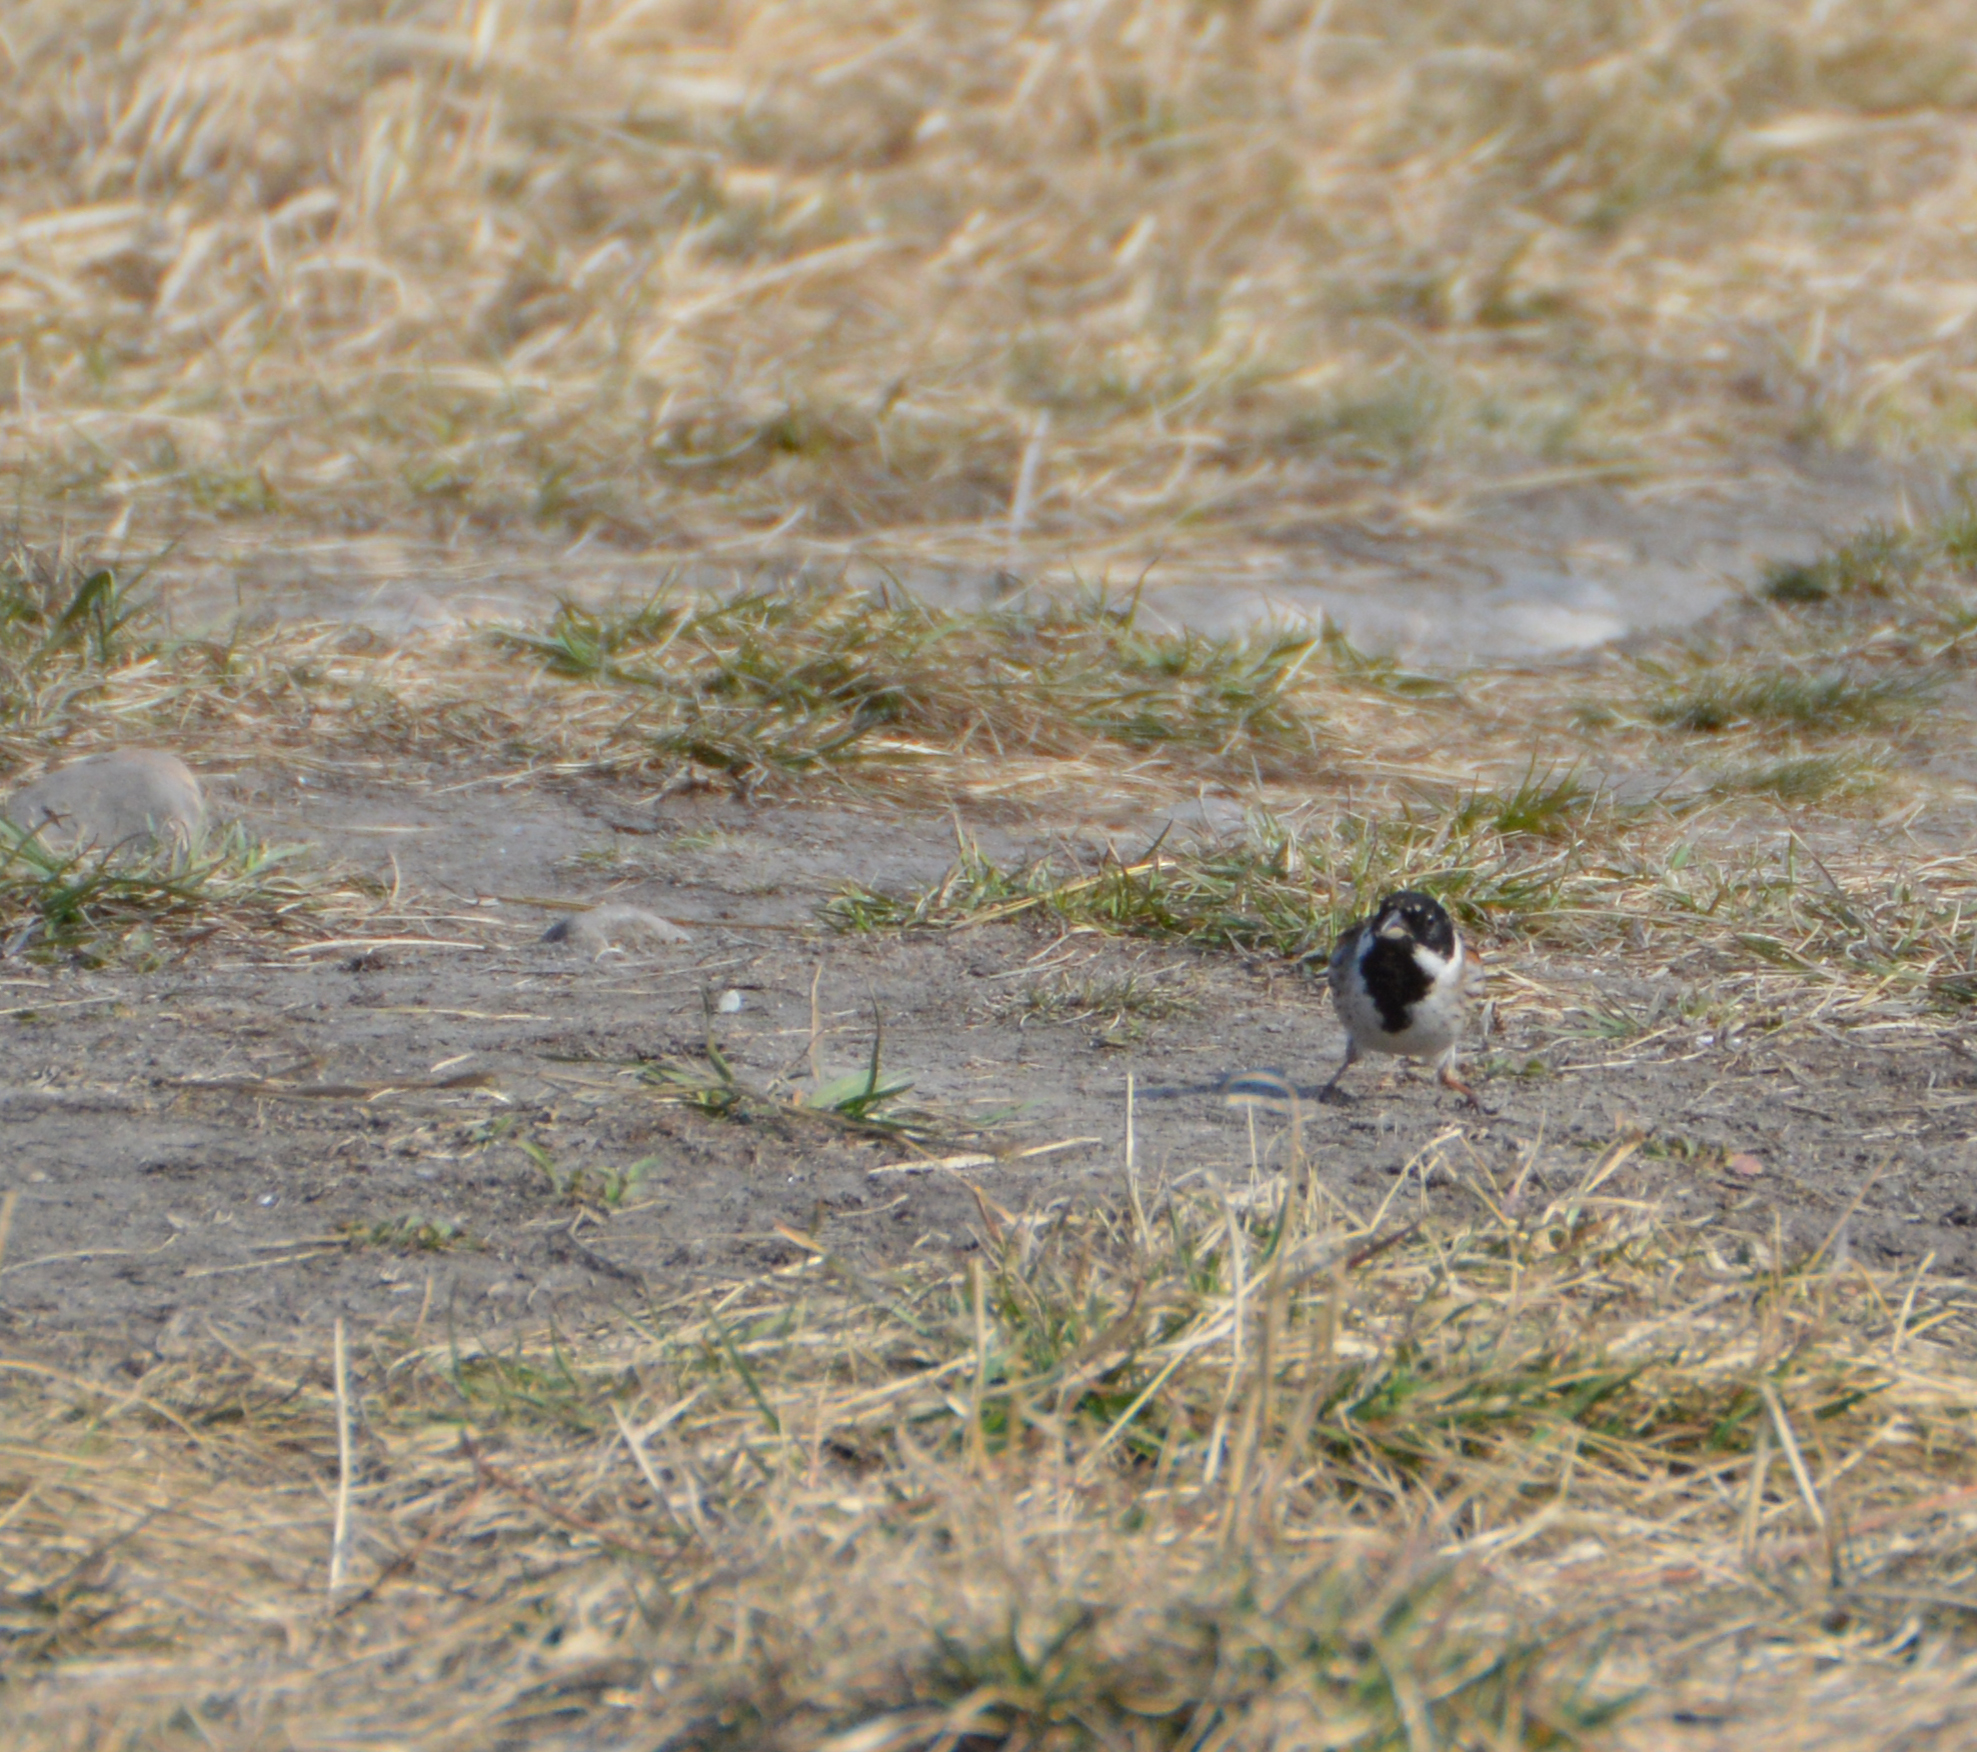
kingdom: Animalia
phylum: Chordata
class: Aves
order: Passeriformes
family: Emberizidae
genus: Emberiza
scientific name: Emberiza schoeniclus
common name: Reed bunting
